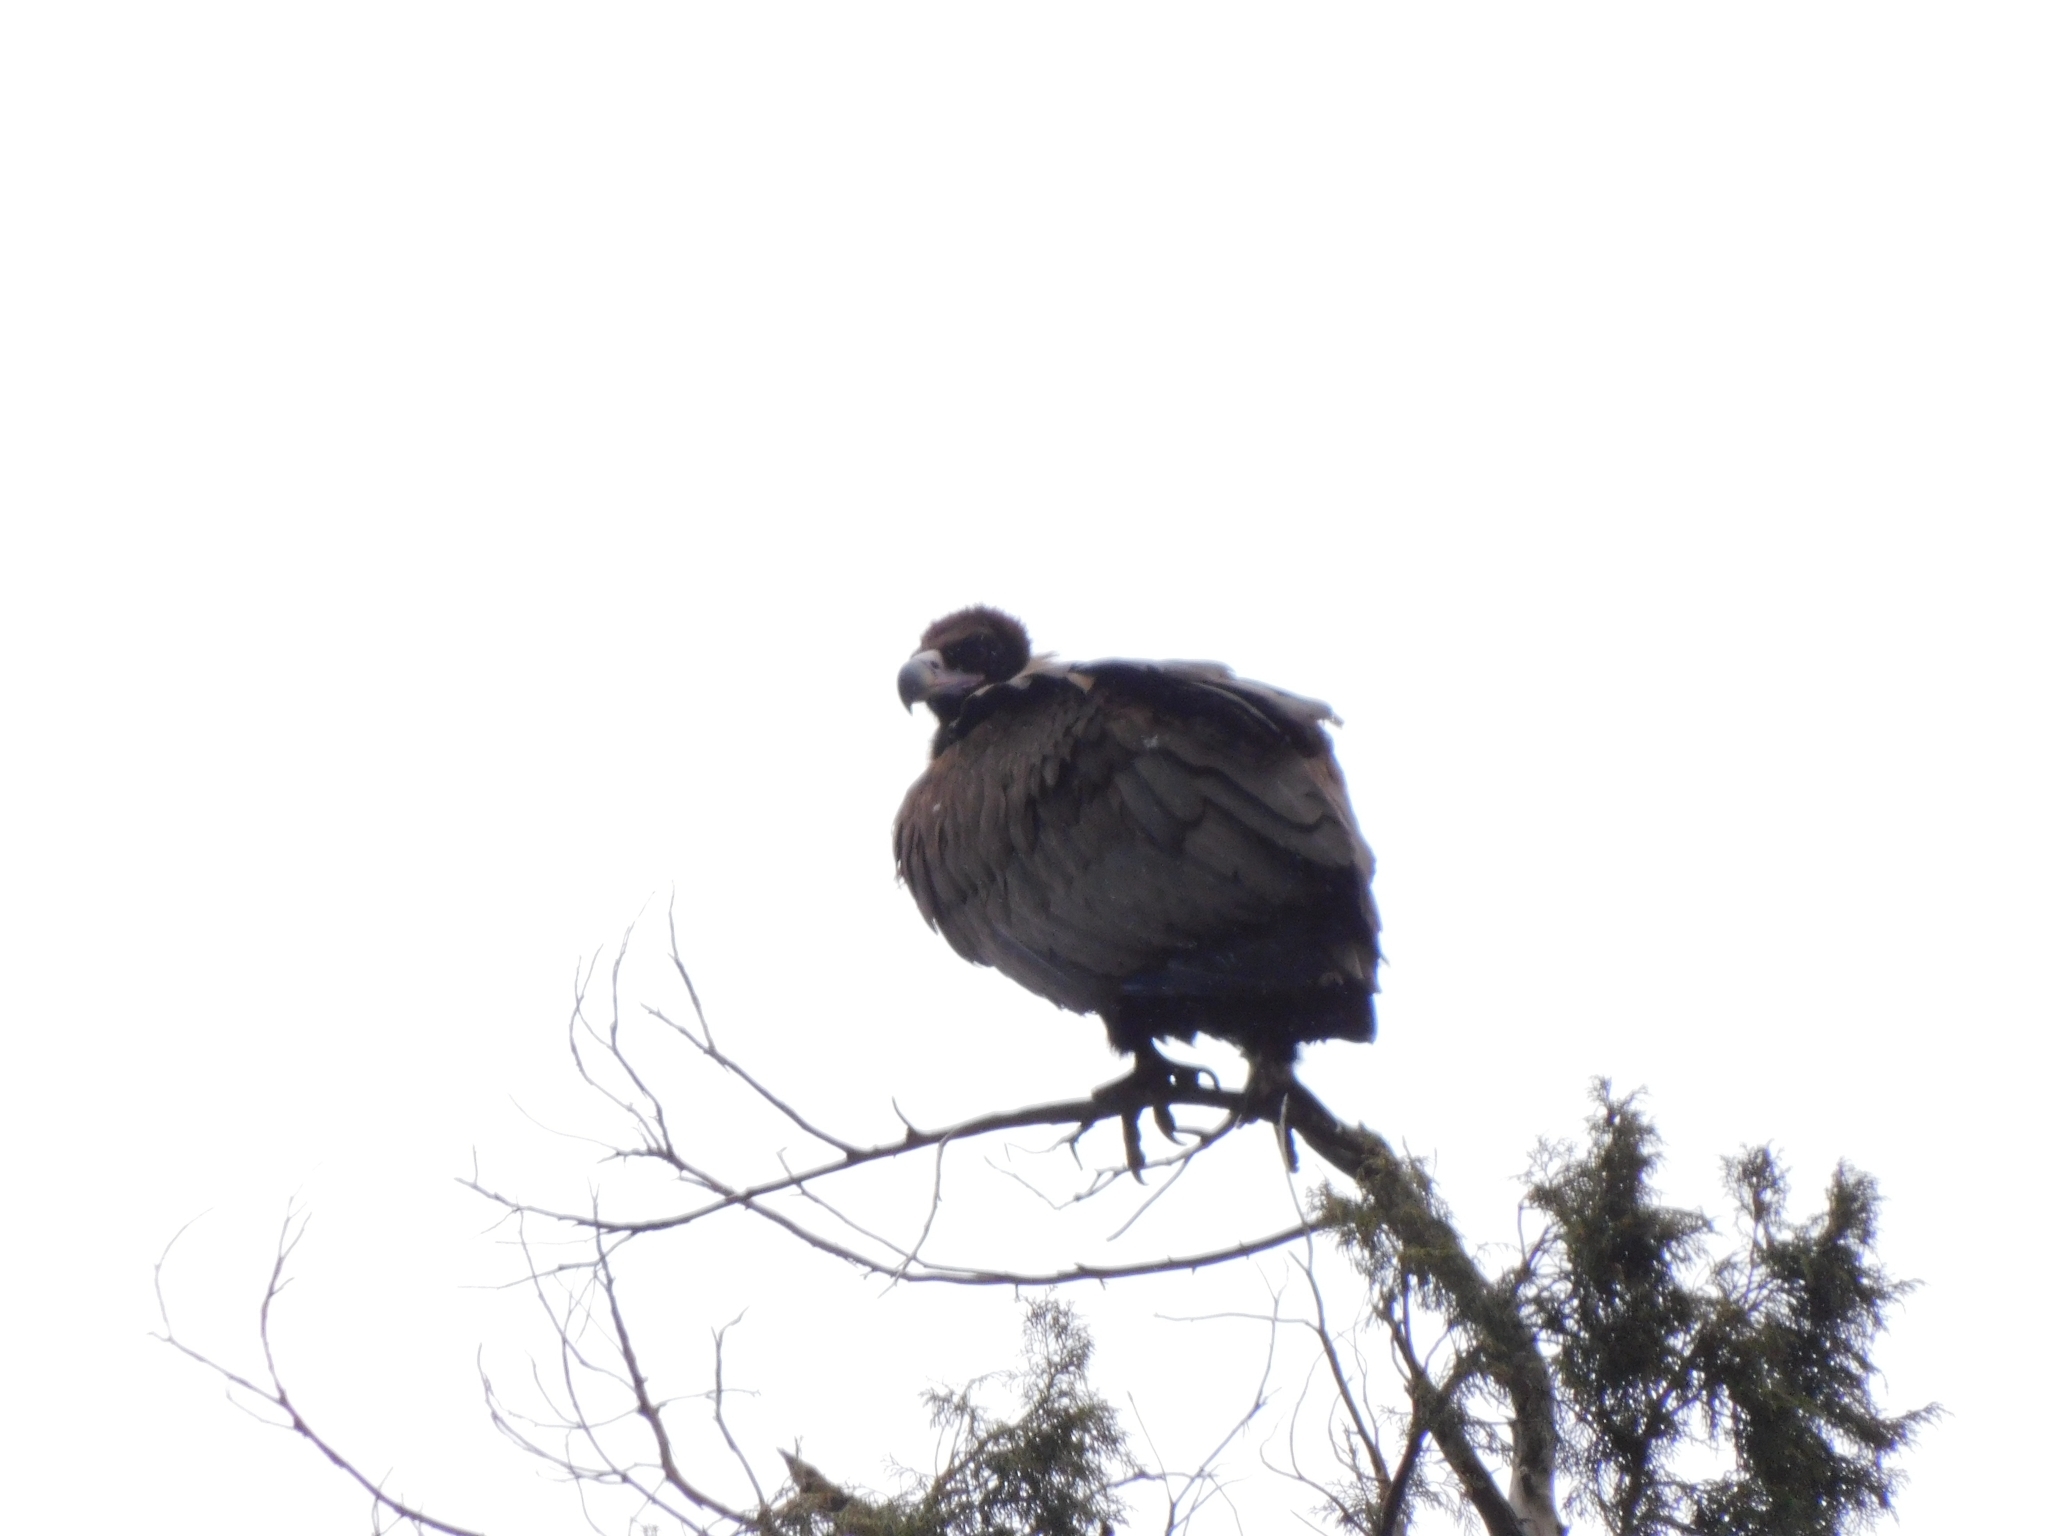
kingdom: Animalia
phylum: Chordata
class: Aves
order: Accipitriformes
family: Accipitridae
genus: Aegypius
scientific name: Aegypius monachus
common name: Cinereous vulture
